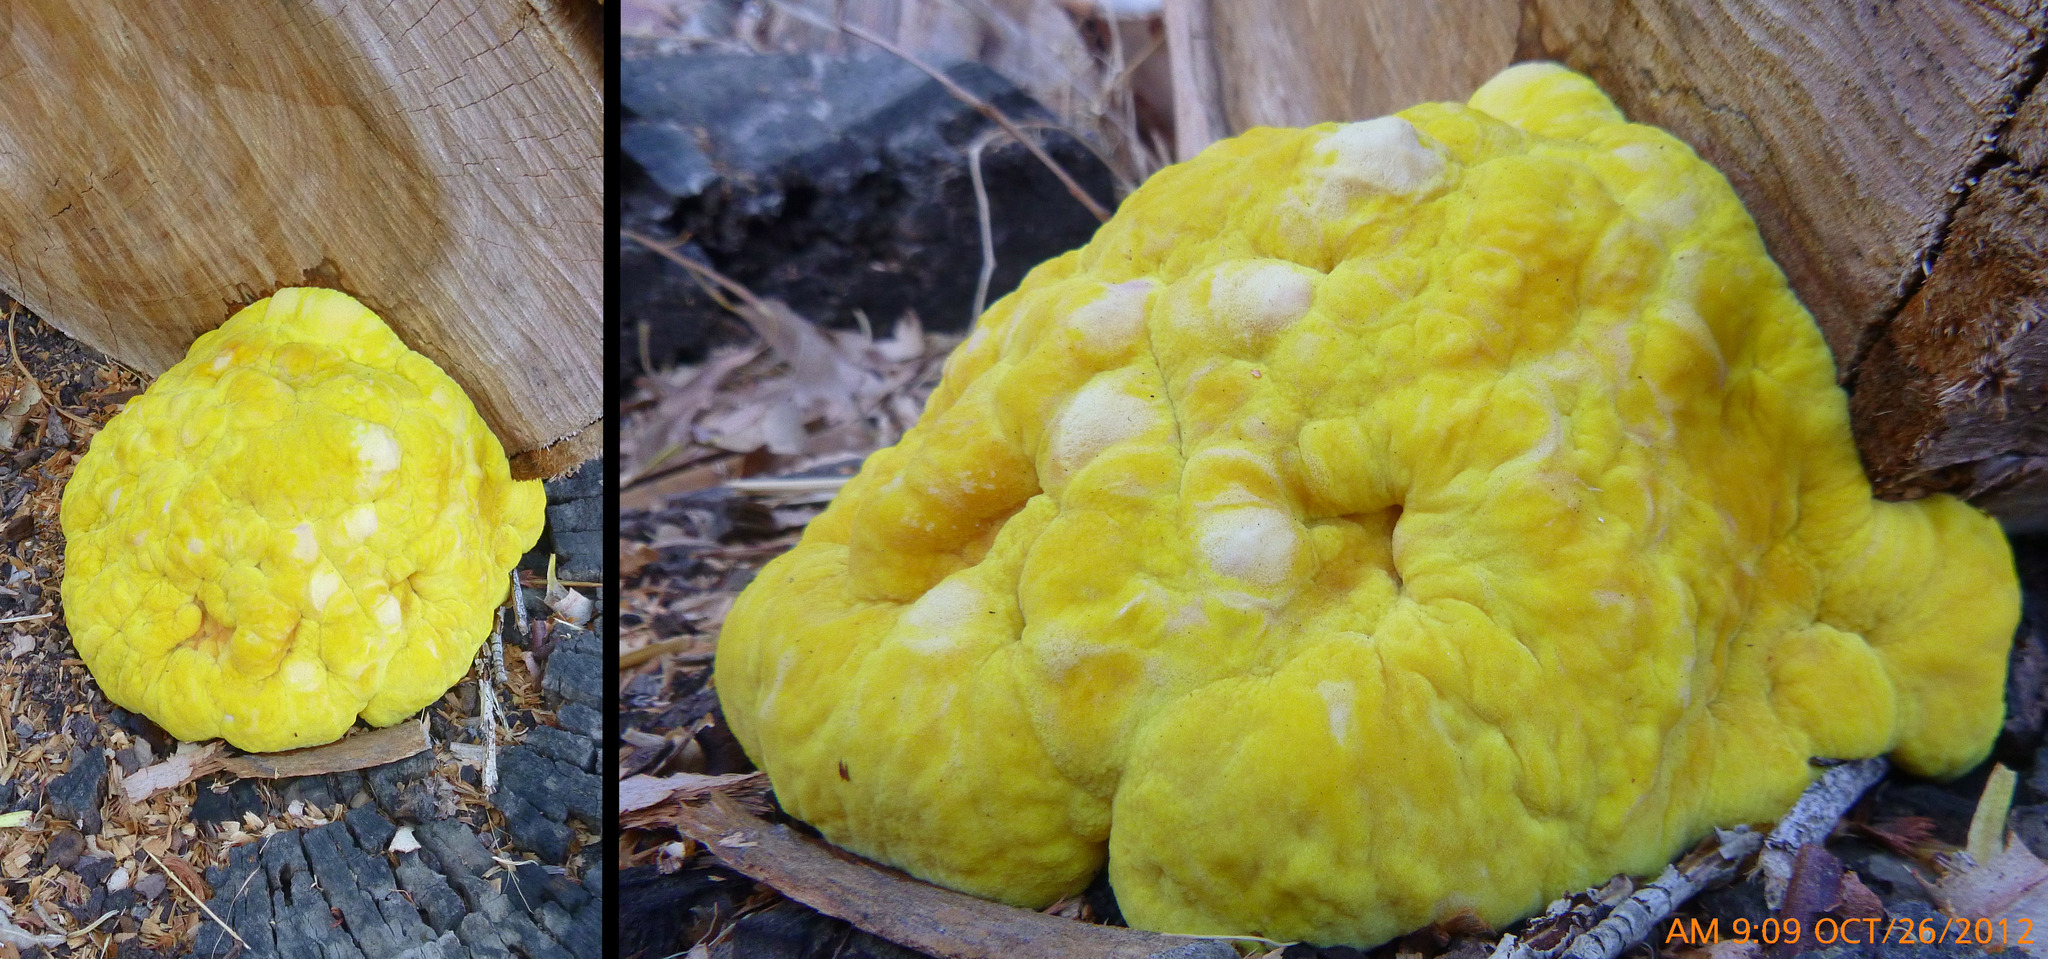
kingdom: Fungi
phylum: Basidiomycota
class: Agaricomycetes
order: Polyporales
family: Laetiporaceae
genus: Laetiporus
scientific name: Laetiporus gilbertsonii
